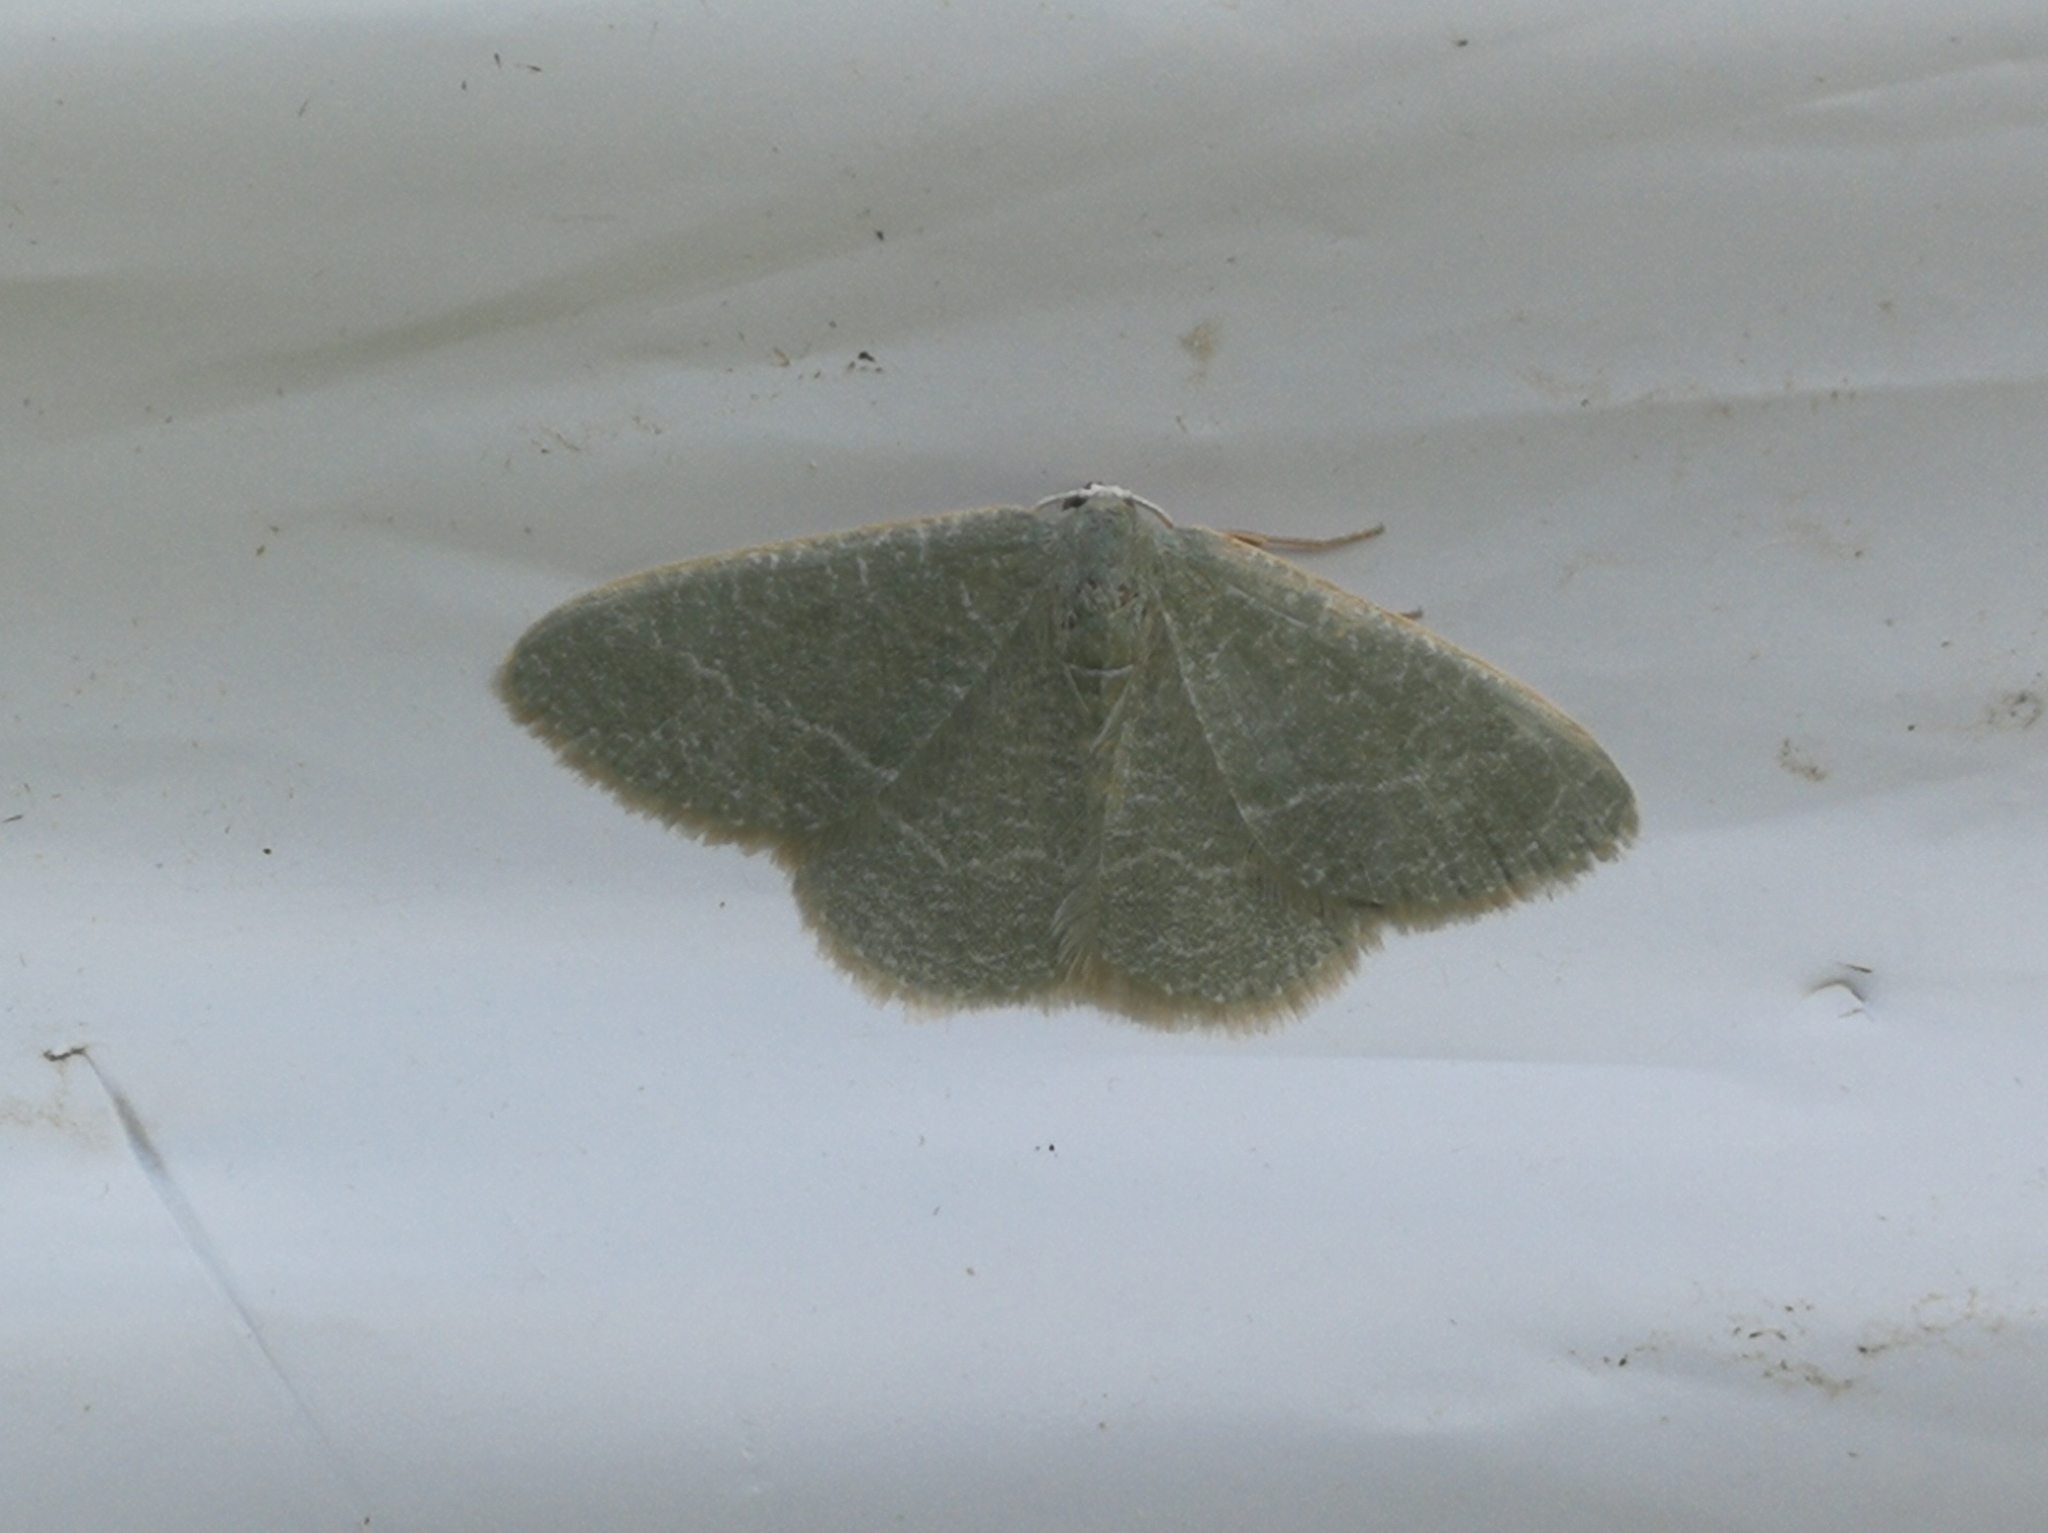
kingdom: Animalia
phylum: Arthropoda
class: Insecta
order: Lepidoptera
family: Geometridae
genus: Chlorissa
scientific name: Chlorissa etruscaria
